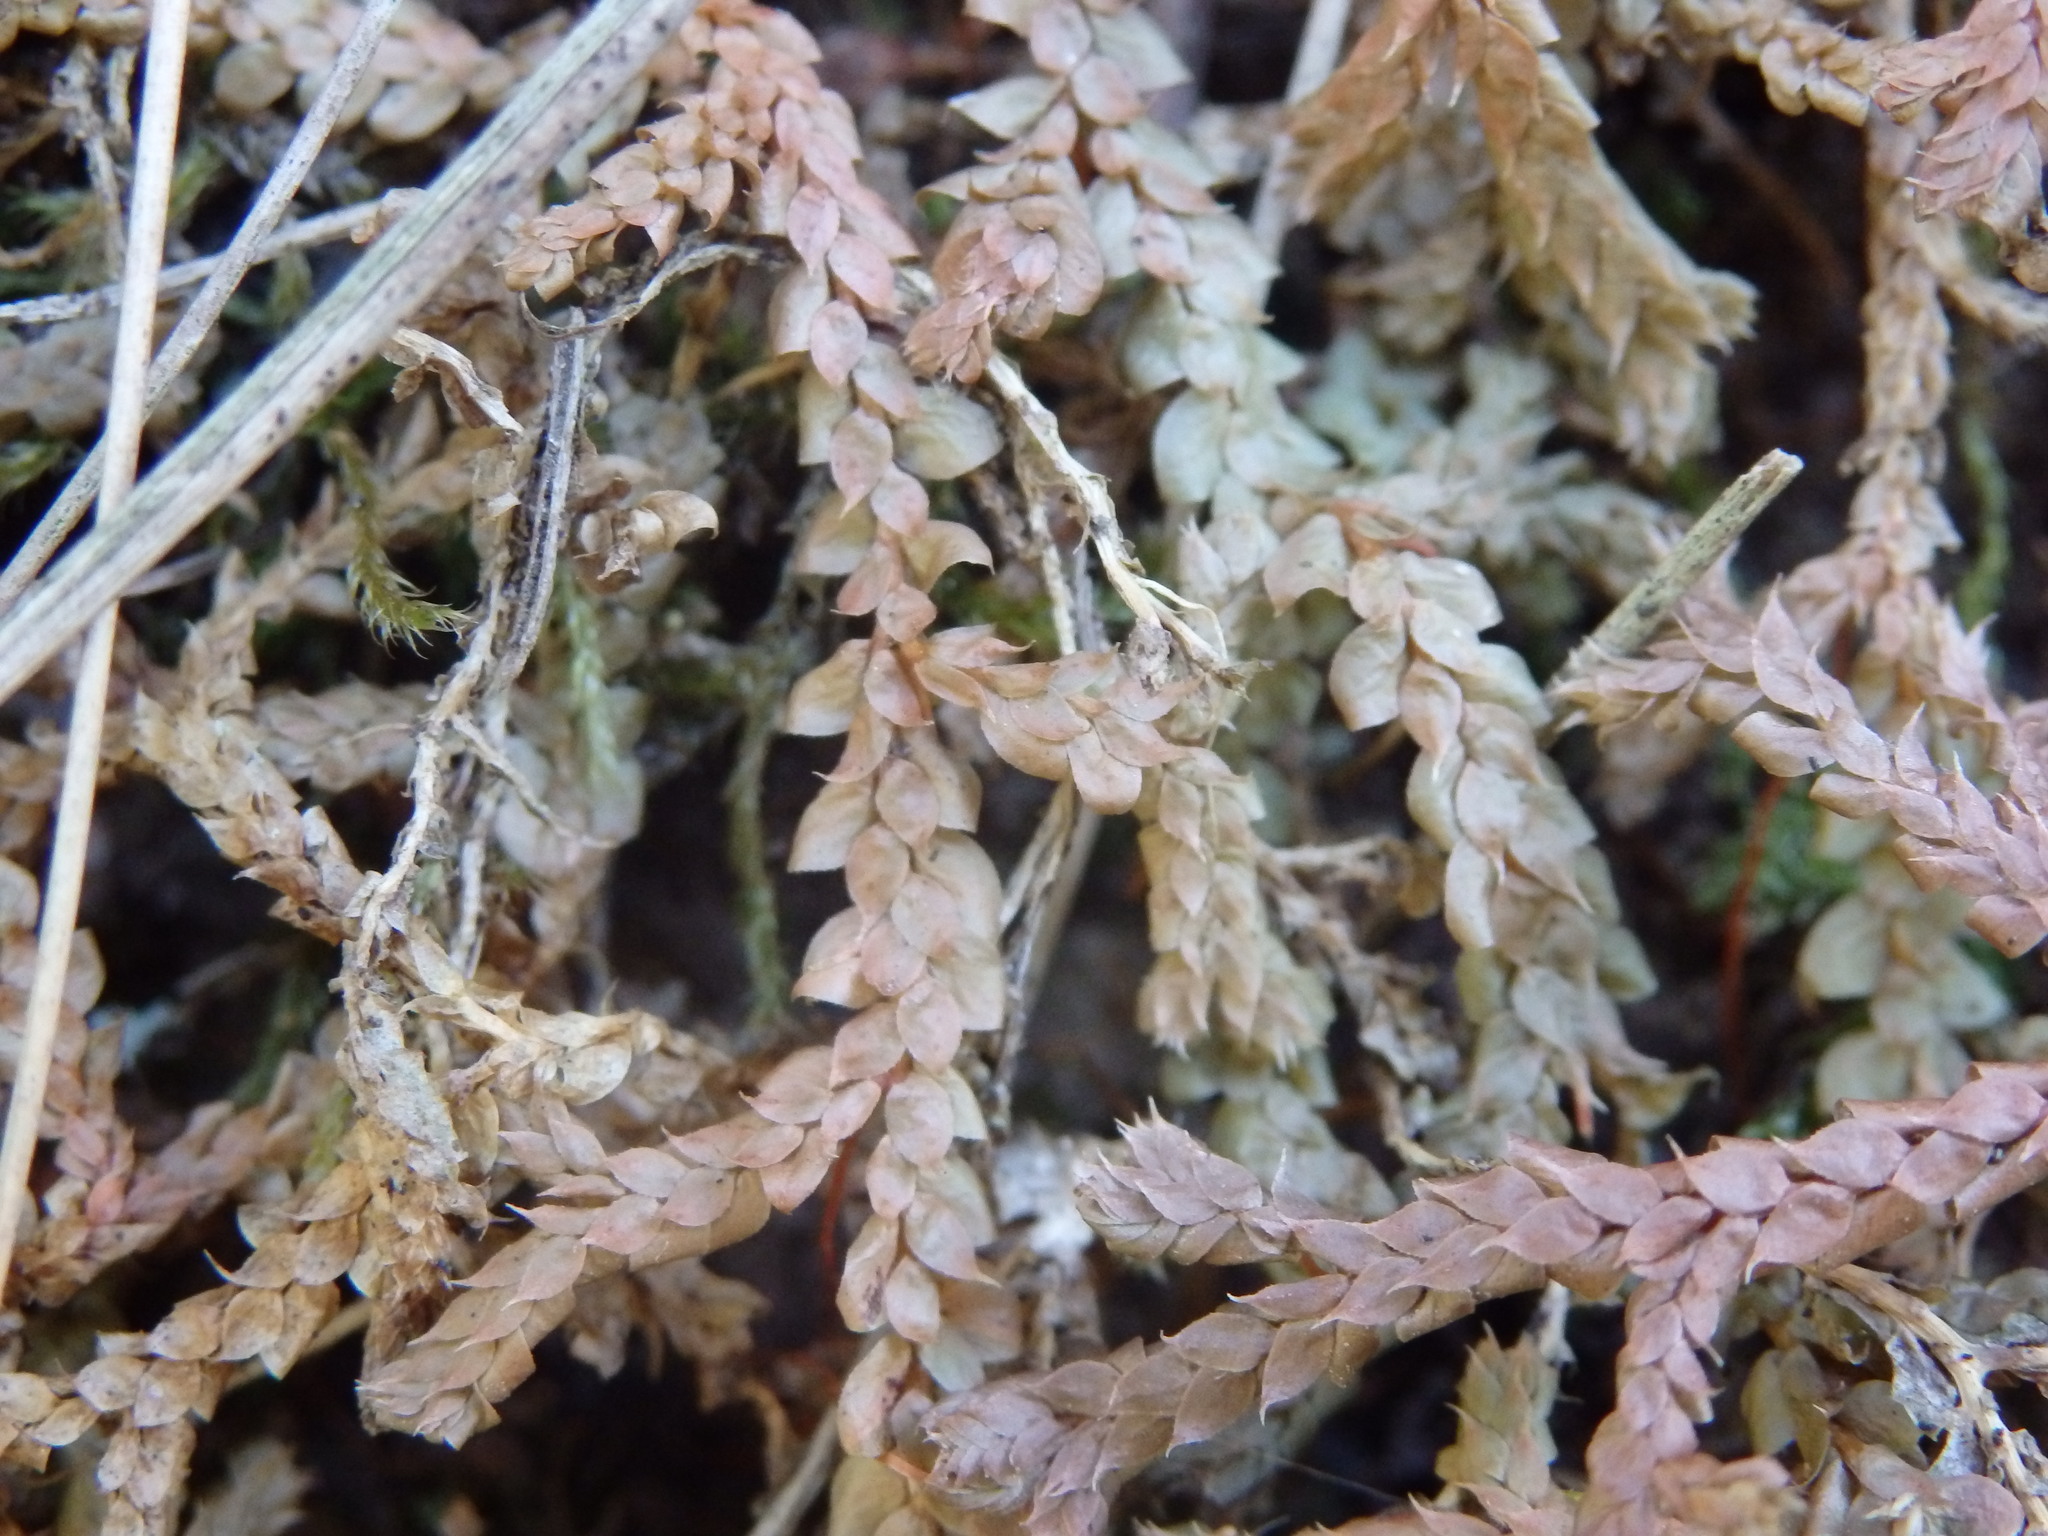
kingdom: Plantae
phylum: Tracheophyta
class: Lycopodiopsida
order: Selaginellales
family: Selaginellaceae
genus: Selaginella
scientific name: Selaginella denticulata
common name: Toothed-leaved clubmoss
